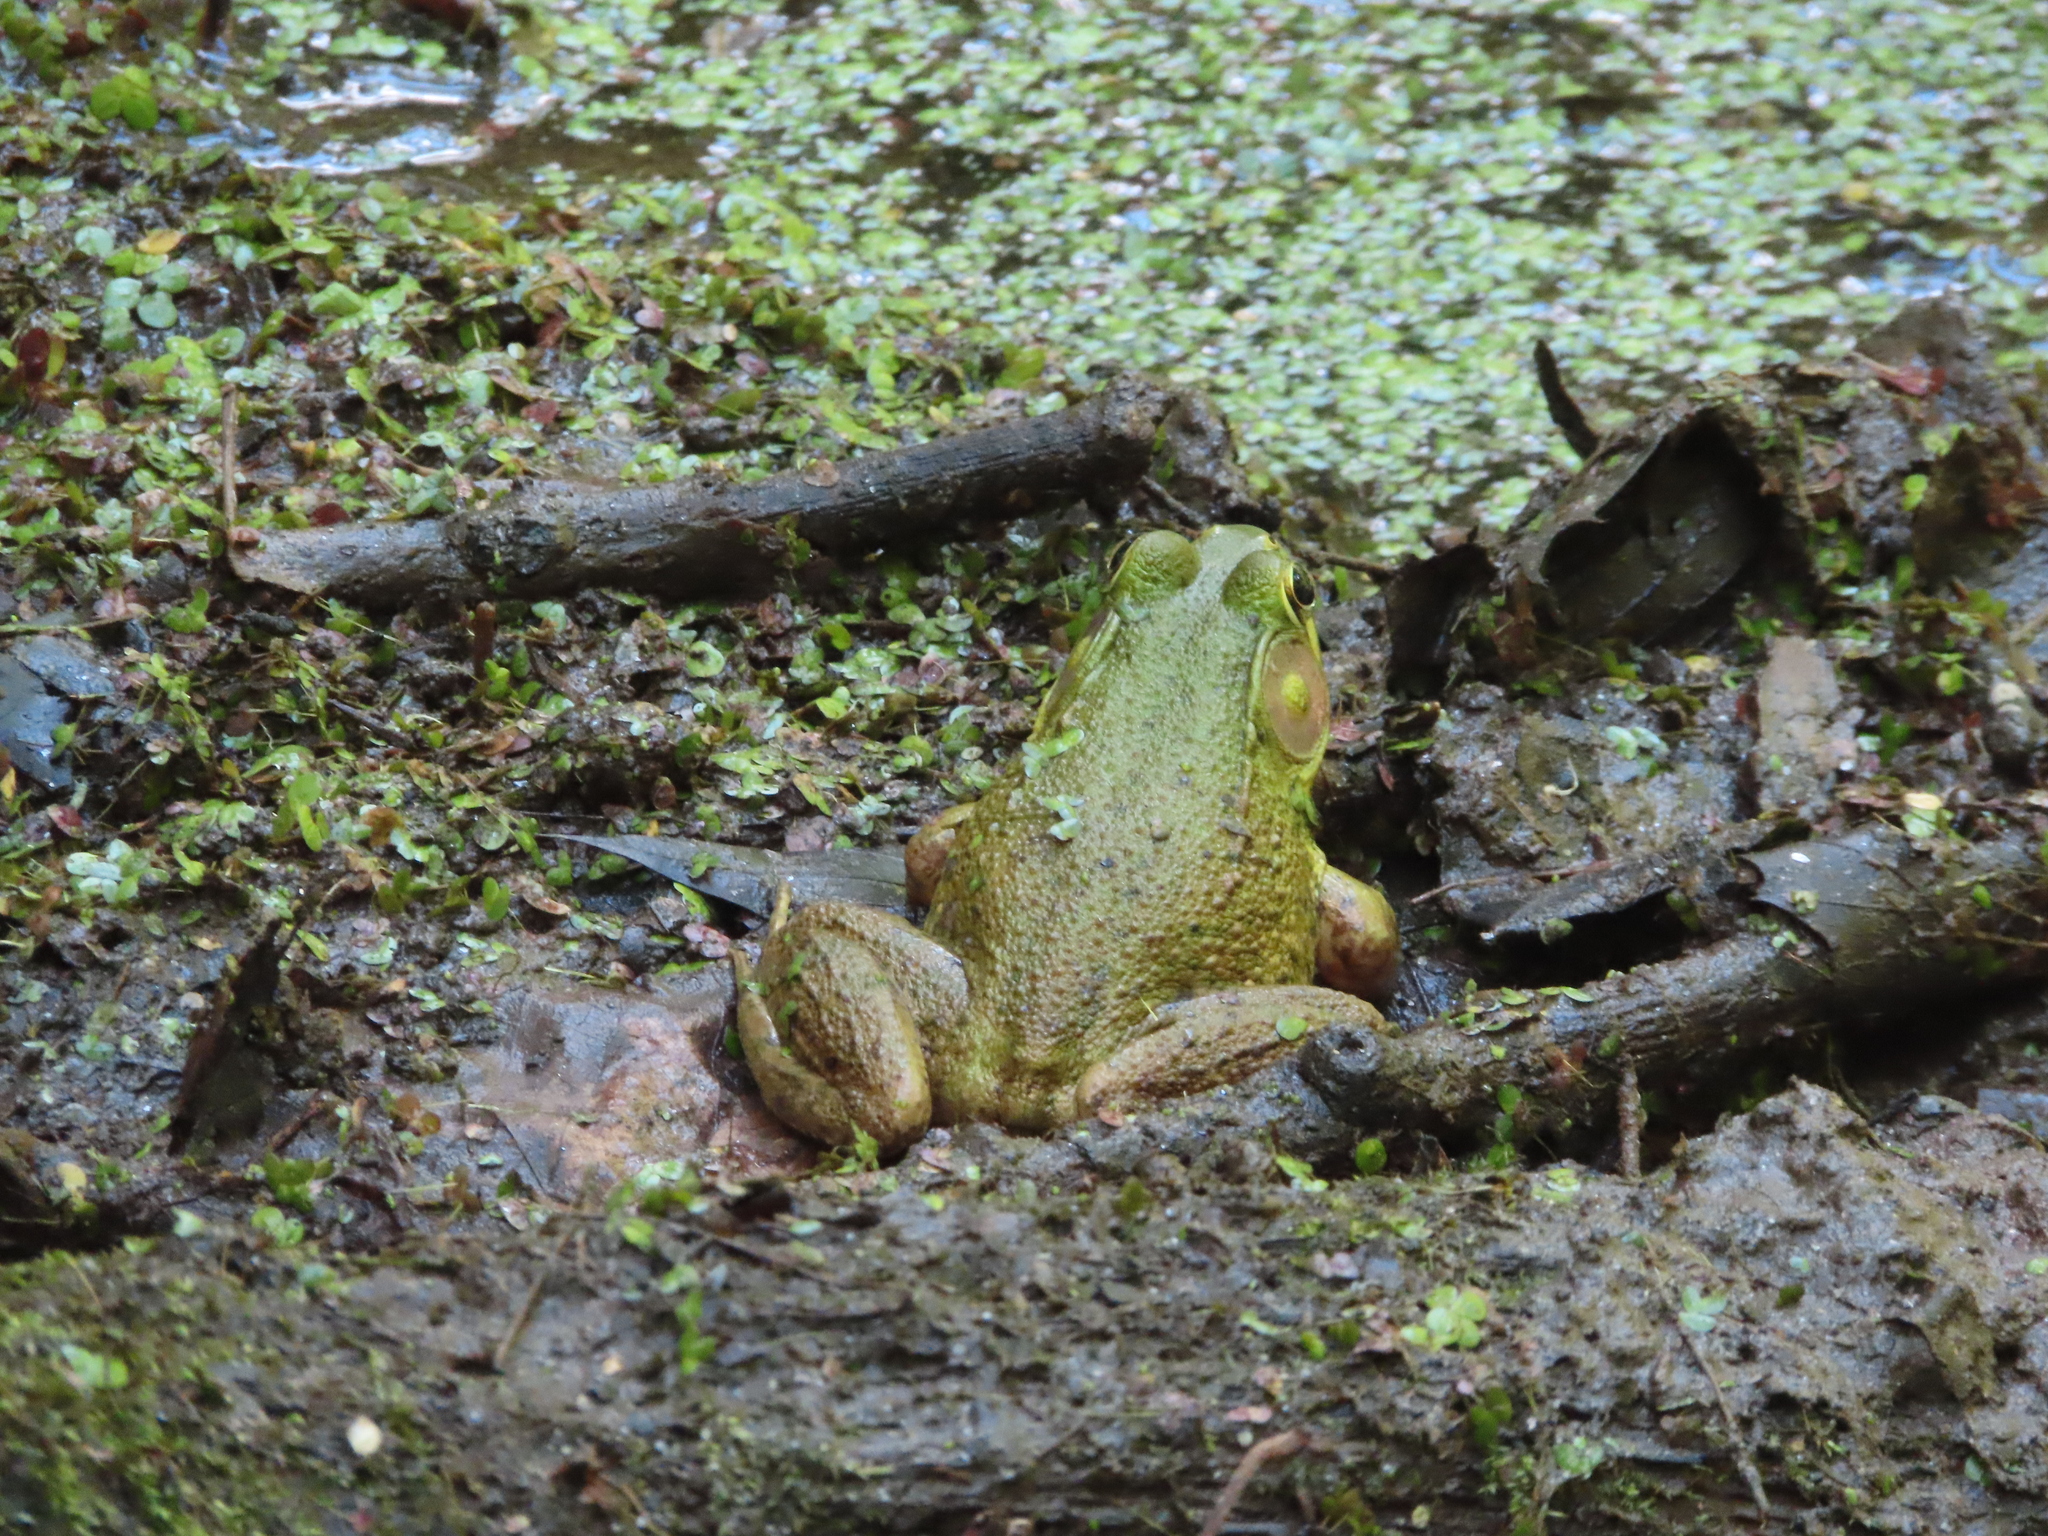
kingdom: Animalia
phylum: Chordata
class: Amphibia
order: Anura
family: Ranidae
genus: Lithobates
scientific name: Lithobates clamitans
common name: Green frog
